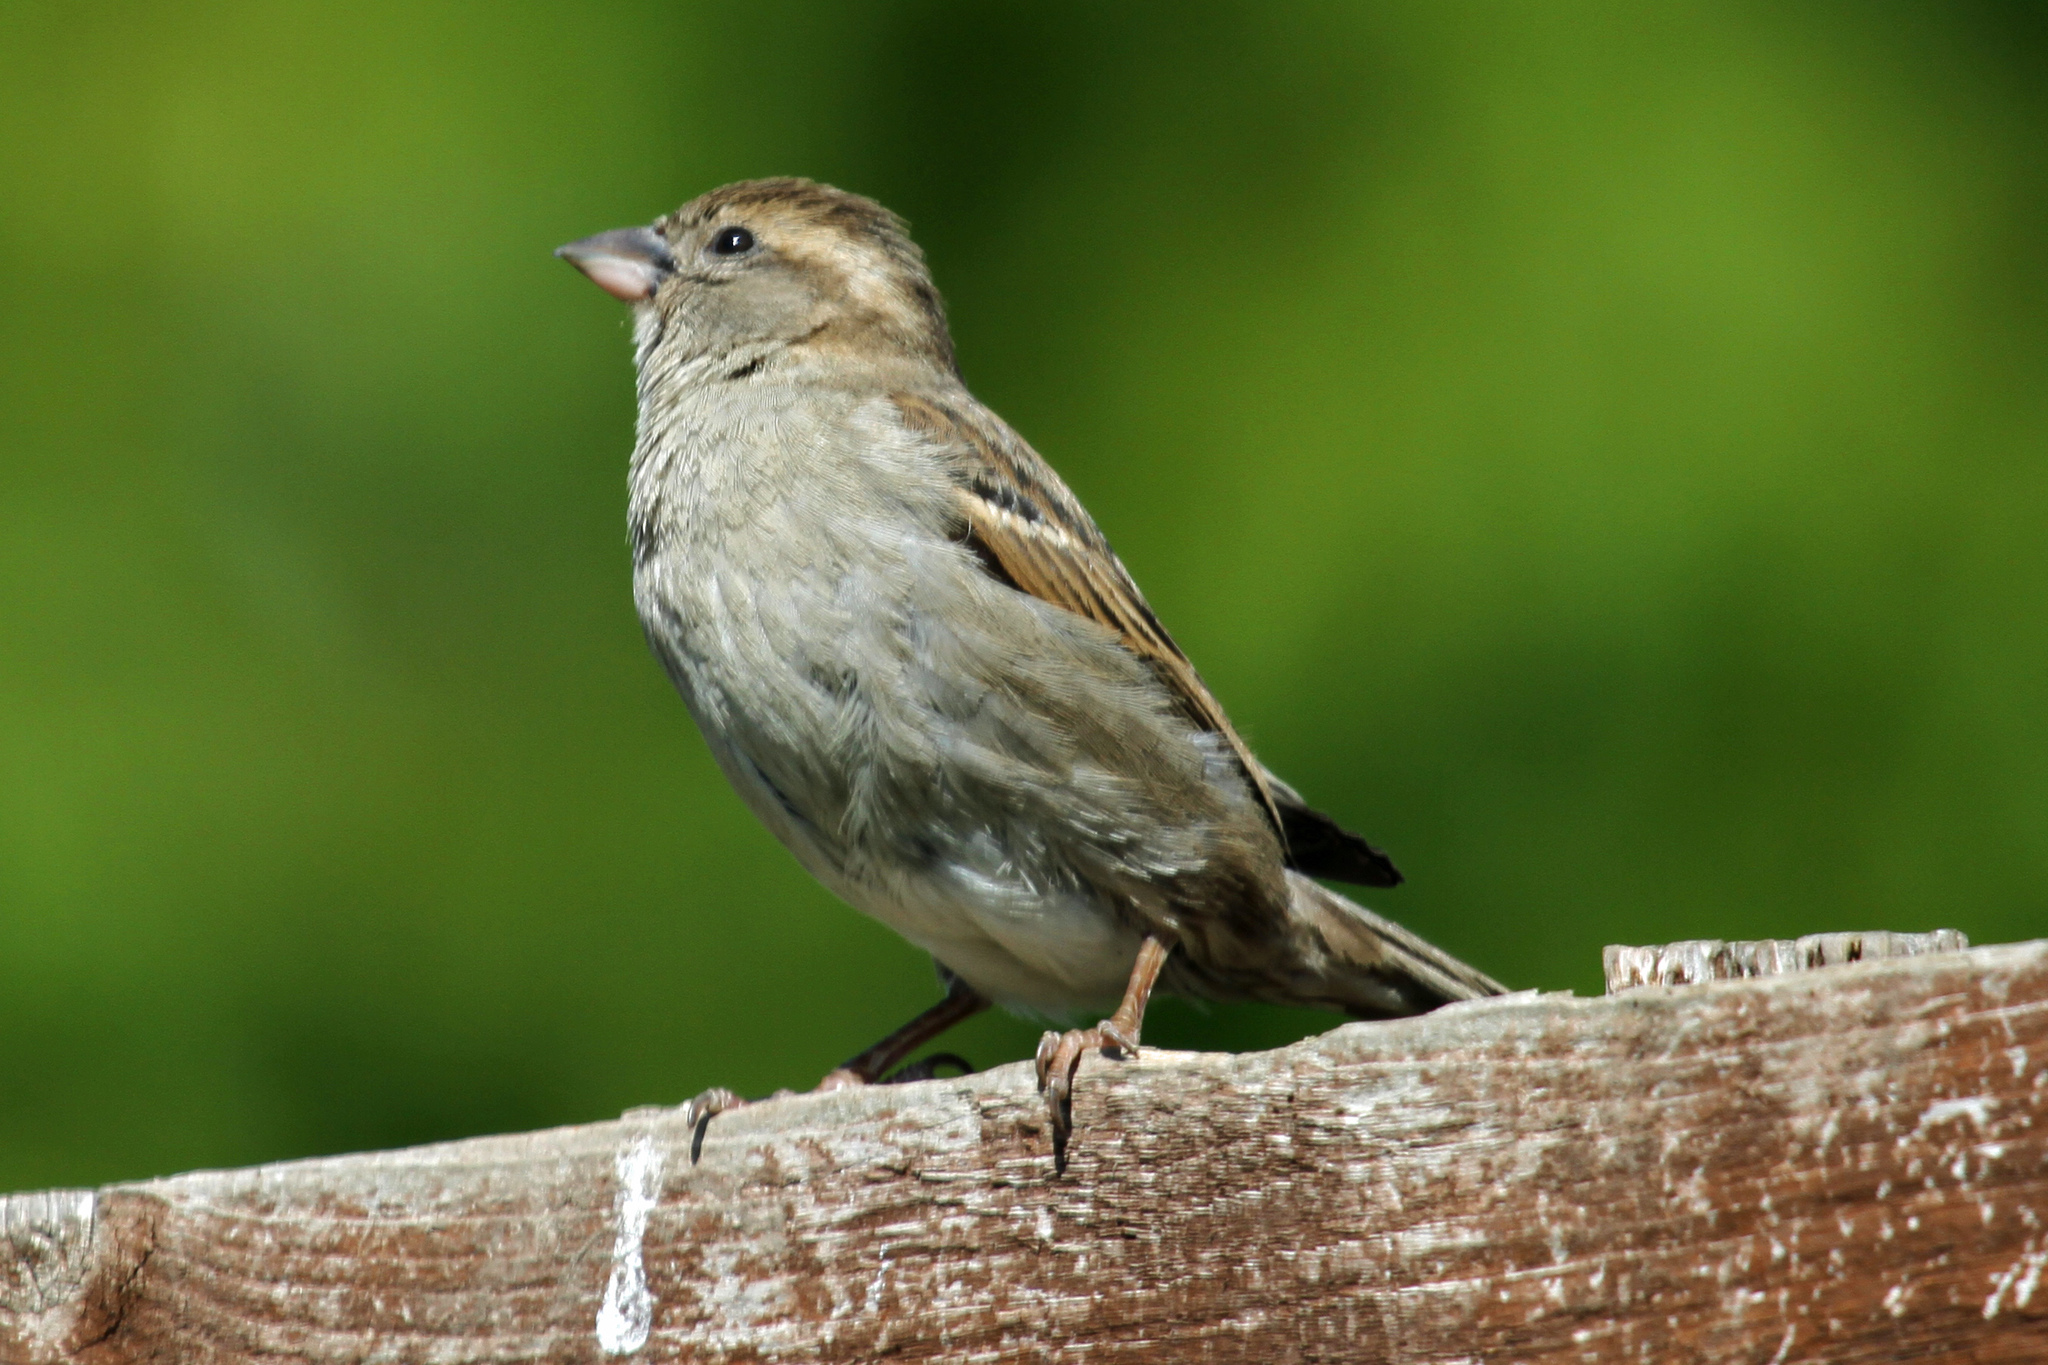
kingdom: Animalia
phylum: Chordata
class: Aves
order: Passeriformes
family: Passeridae
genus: Passer
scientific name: Passer domesticus
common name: House sparrow
